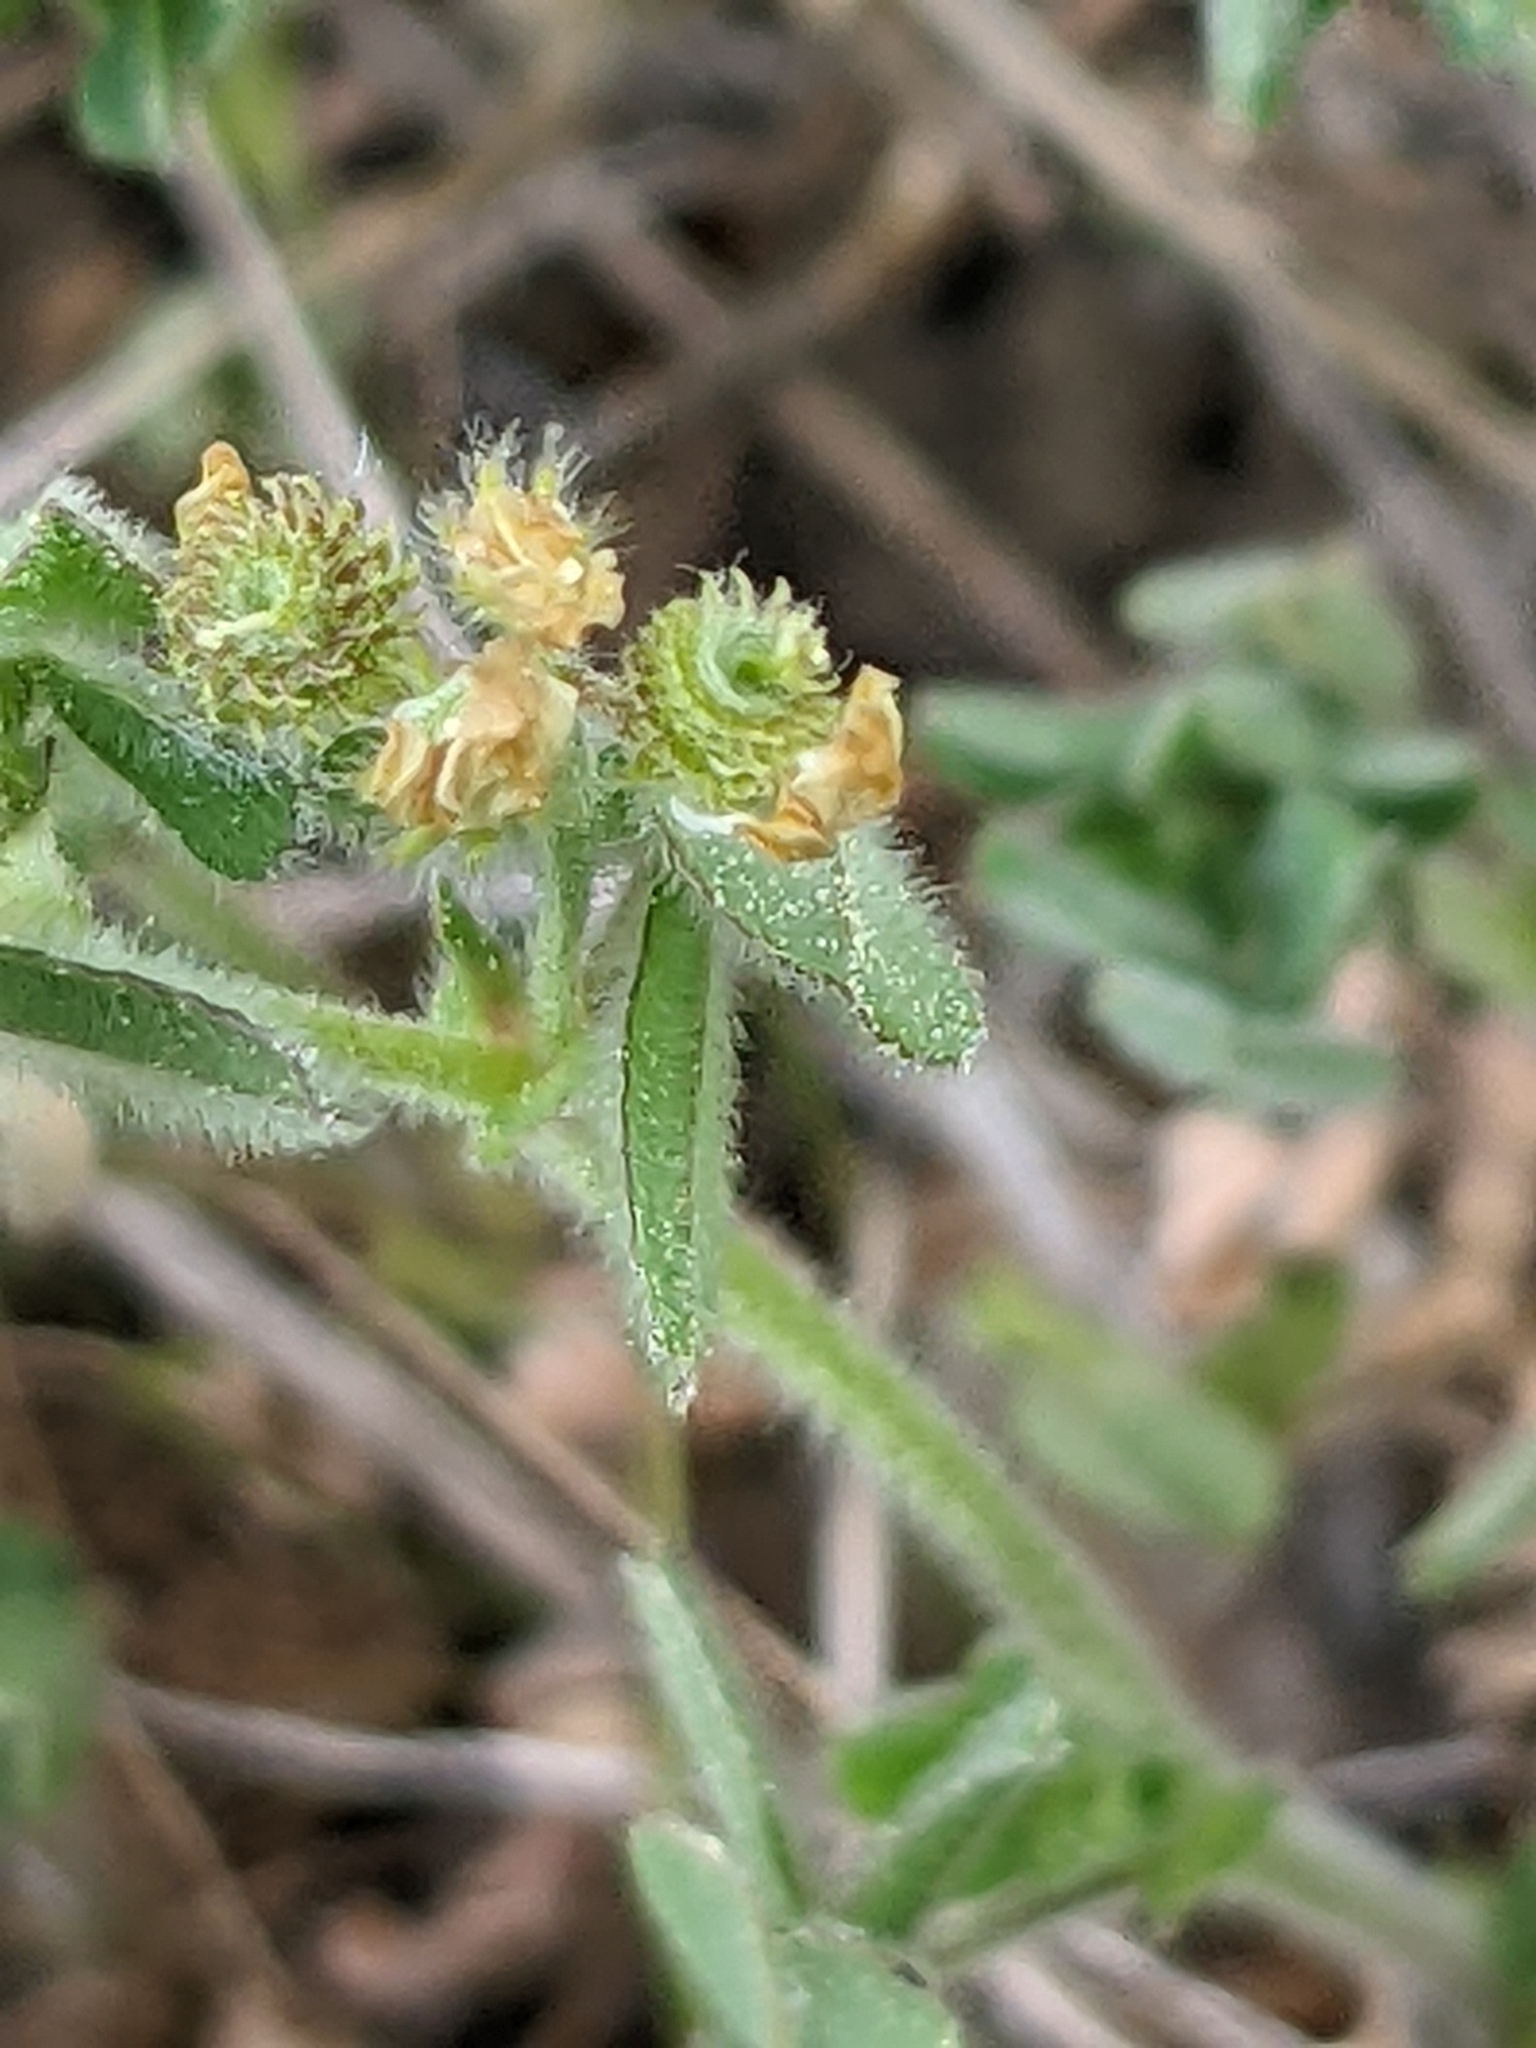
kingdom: Plantae
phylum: Tracheophyta
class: Magnoliopsida
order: Fabales
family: Fabaceae
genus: Medicago
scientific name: Medicago minima
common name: Little bur-clover
